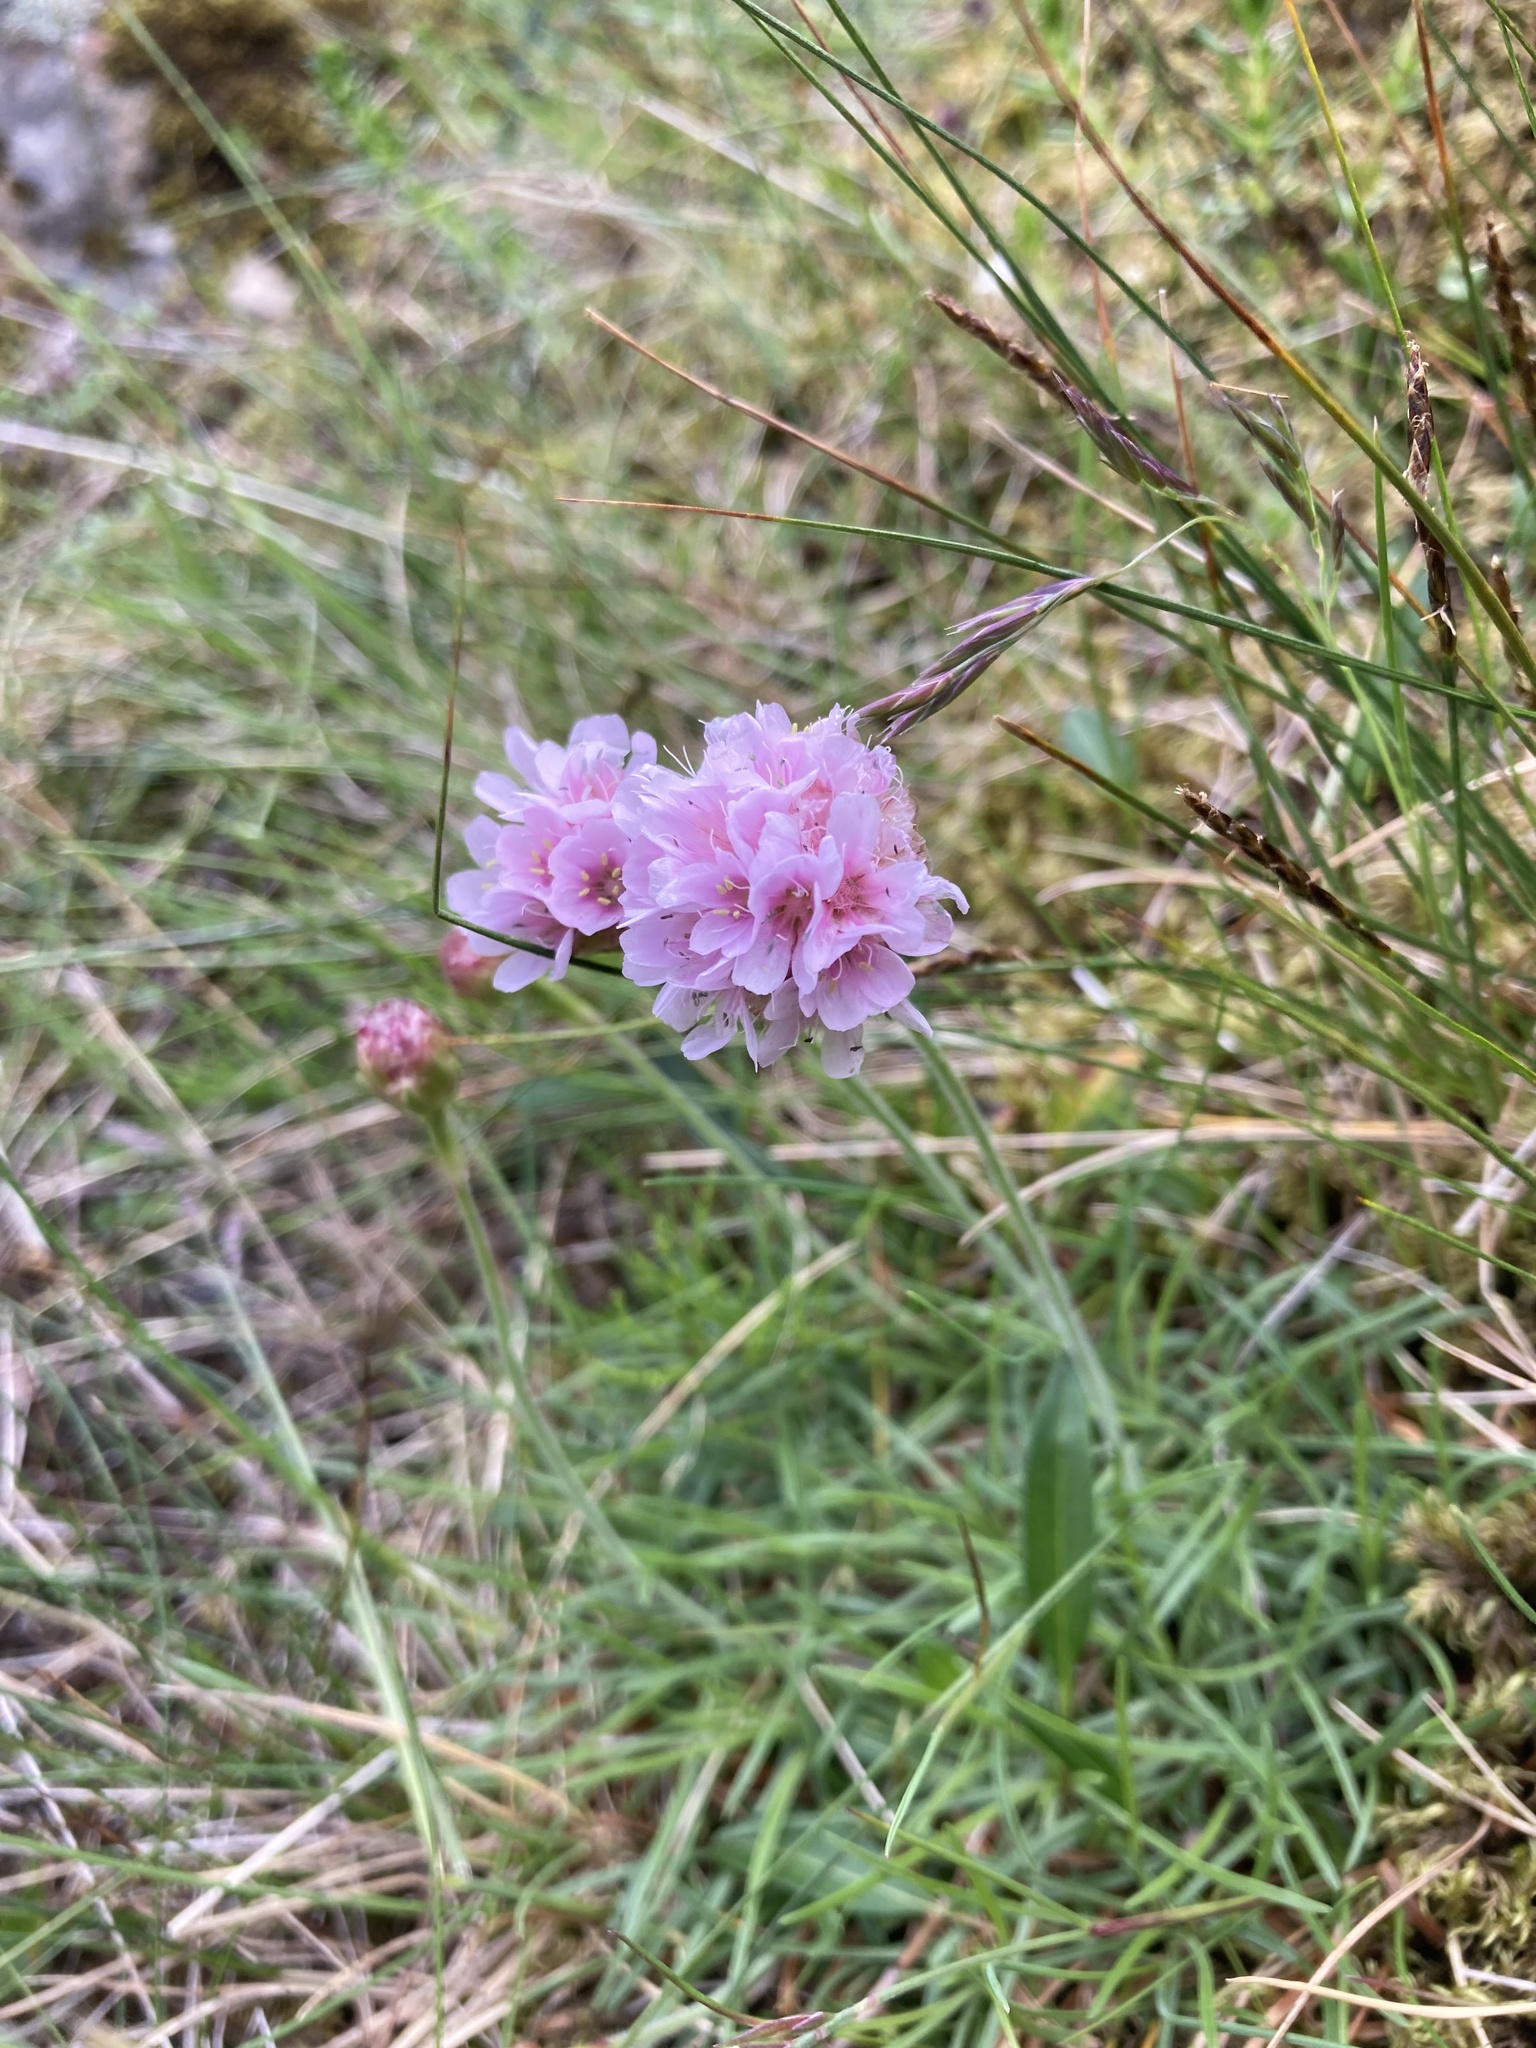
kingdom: Plantae
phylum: Tracheophyta
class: Magnoliopsida
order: Caryophyllales
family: Plumbaginaceae
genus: Armeria
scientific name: Armeria maritima
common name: Thrift
